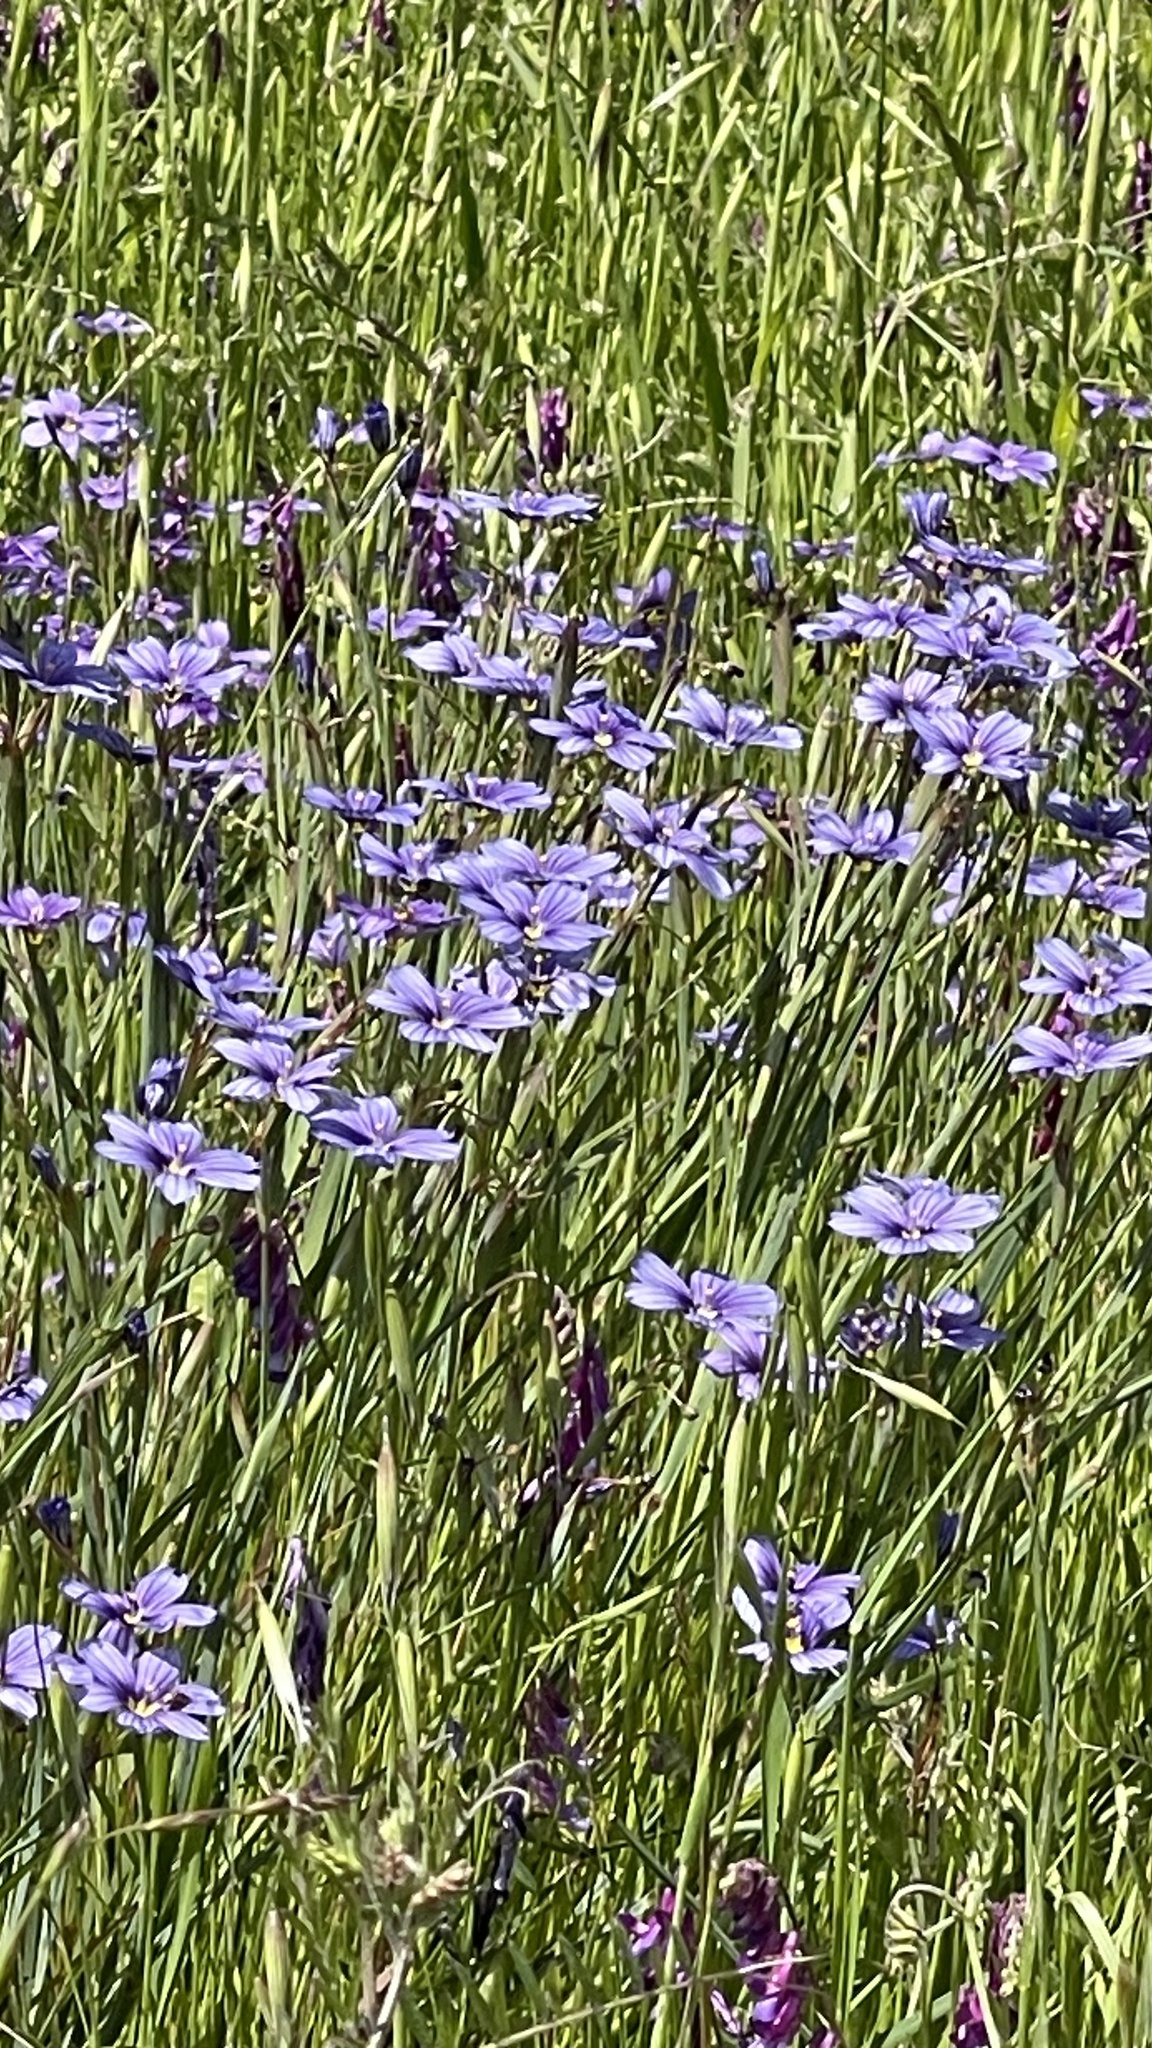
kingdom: Plantae
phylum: Tracheophyta
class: Liliopsida
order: Asparagales
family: Iridaceae
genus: Sisyrinchium
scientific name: Sisyrinchium bellum
